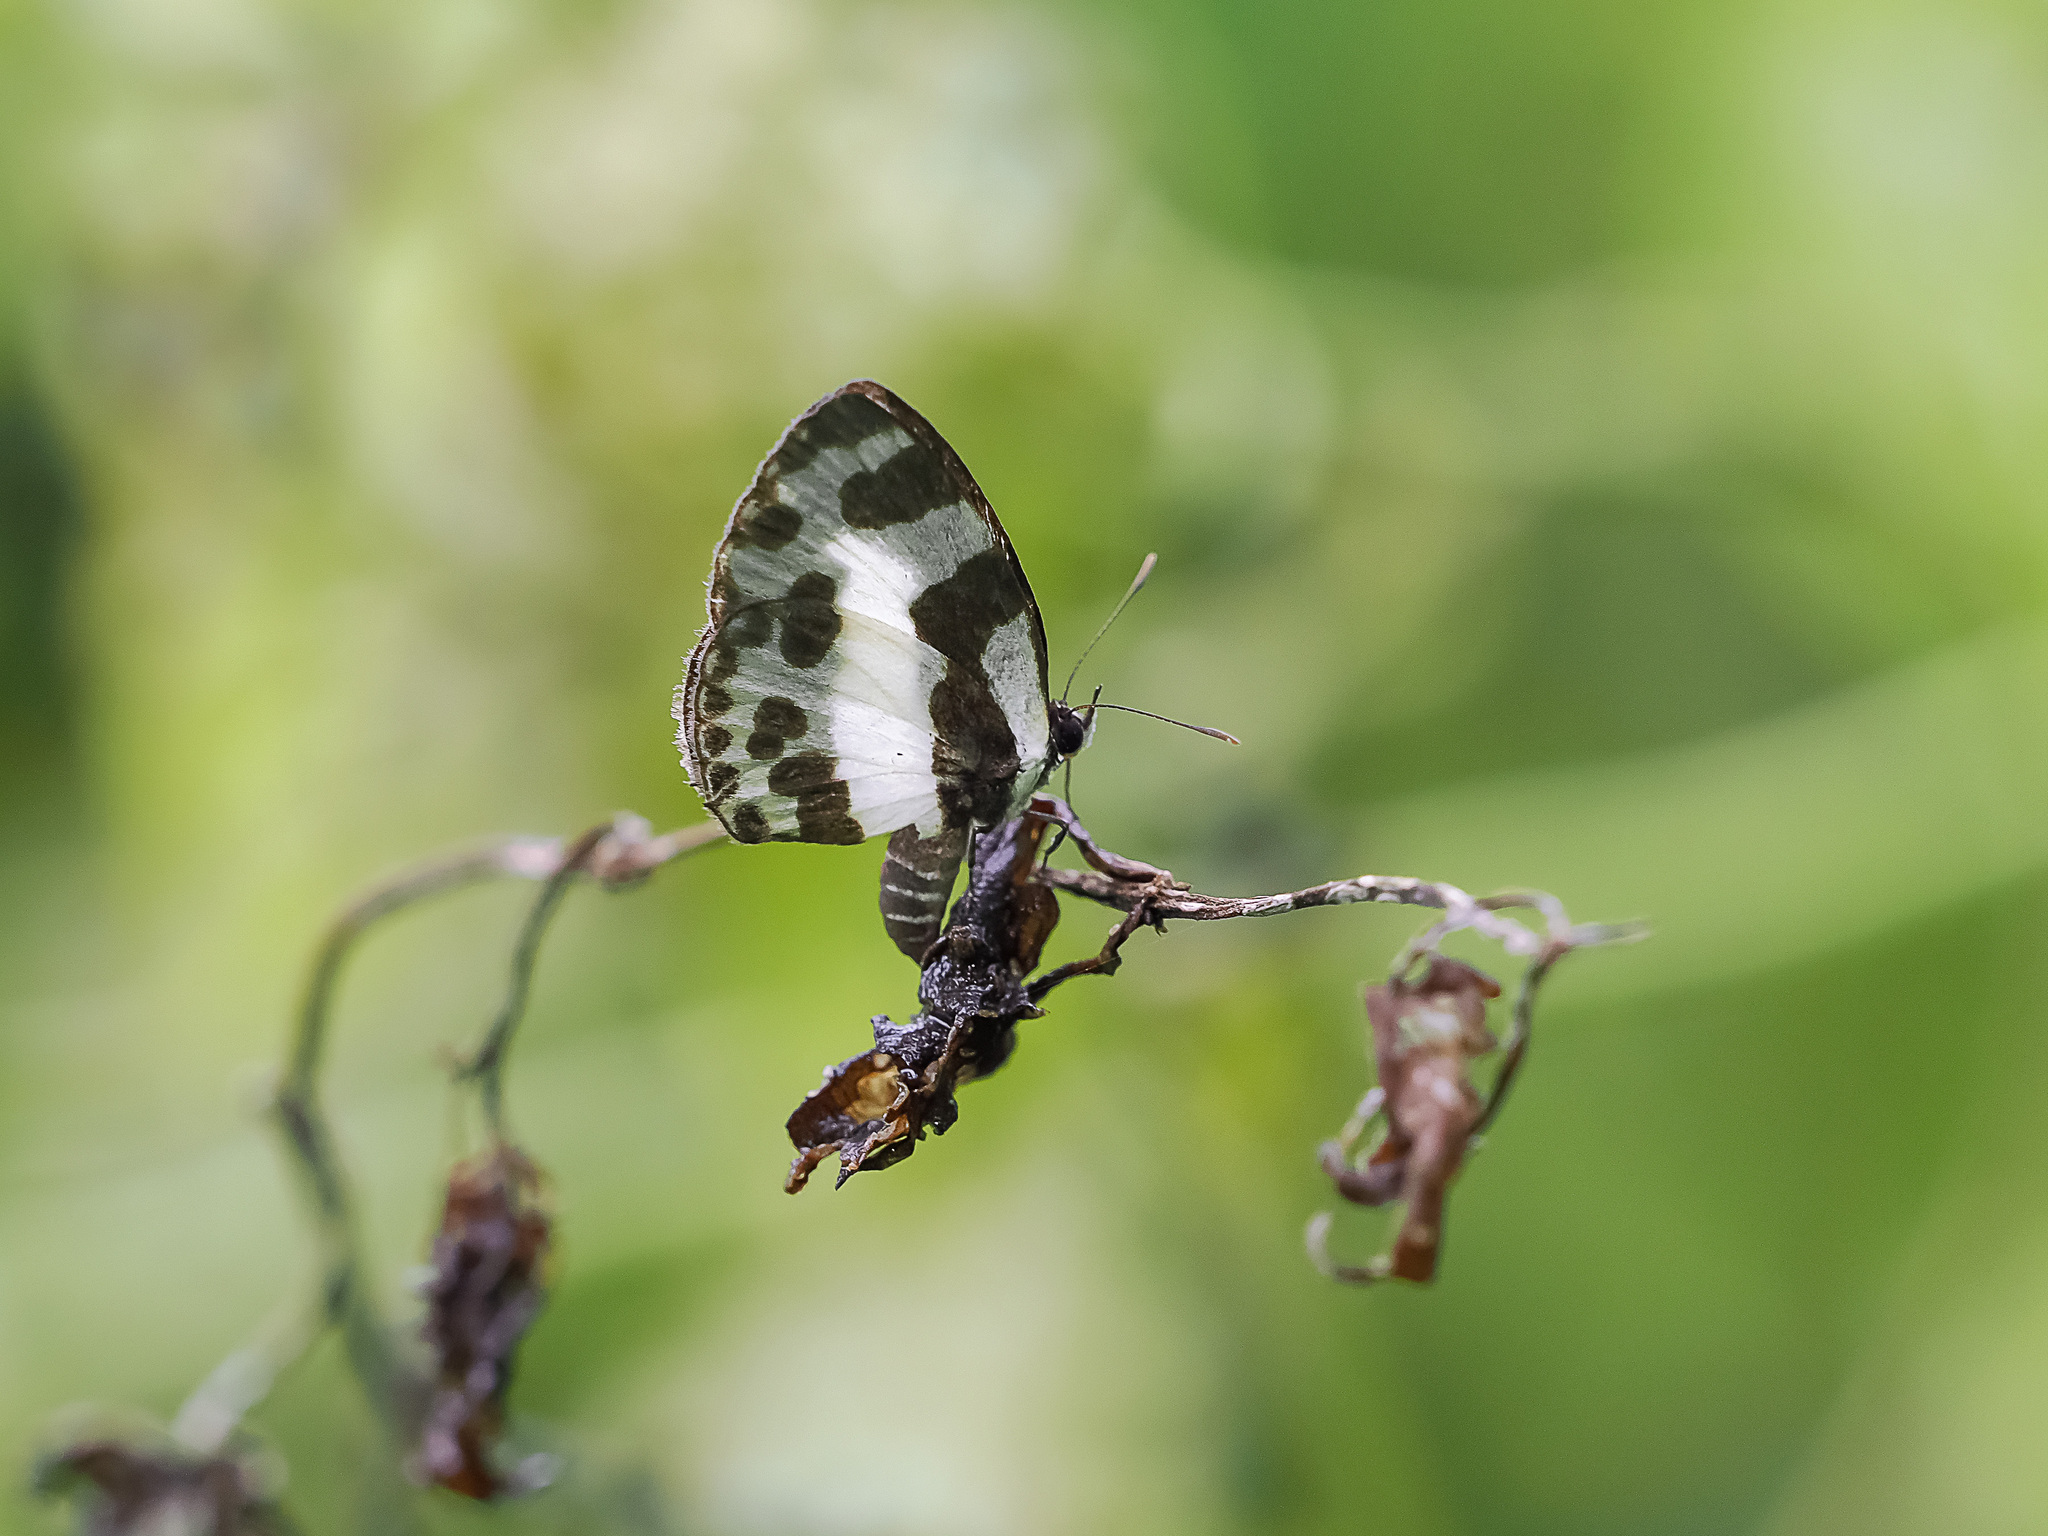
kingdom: Animalia
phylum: Arthropoda
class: Insecta
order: Lepidoptera
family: Lycaenidae
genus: Caleta
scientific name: Caleta elna
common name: Elbowed pierrot
